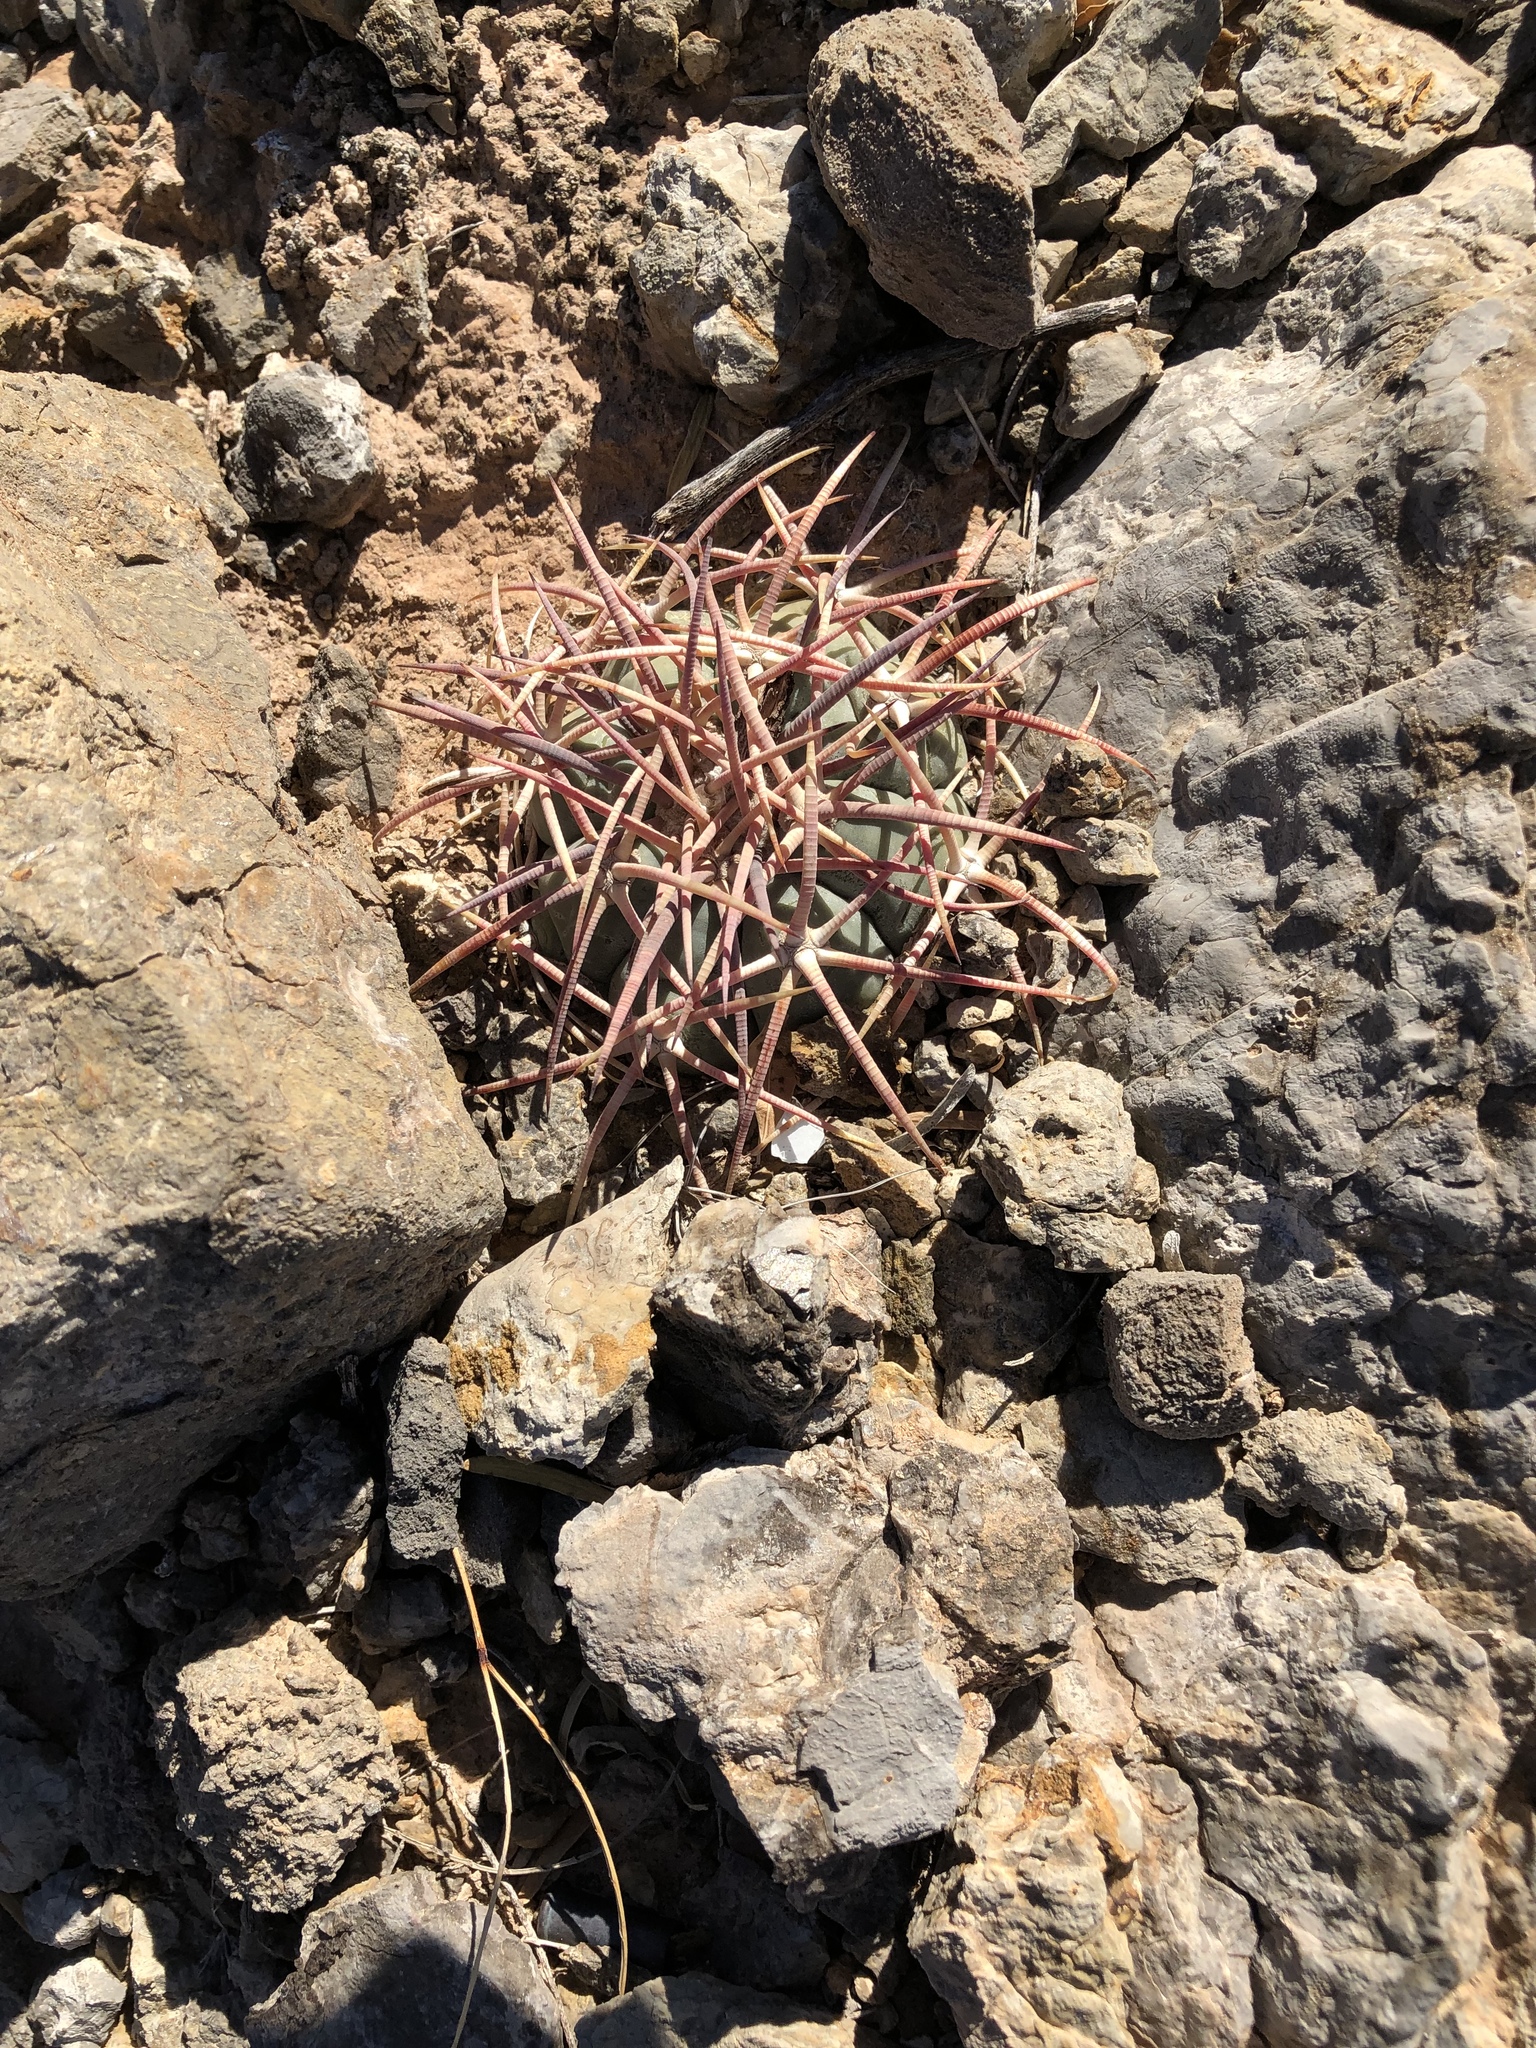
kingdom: Plantae
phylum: Tracheophyta
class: Magnoliopsida
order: Caryophyllales
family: Cactaceae
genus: Echinocactus
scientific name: Echinocactus horizonthalonius
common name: Devilshead
